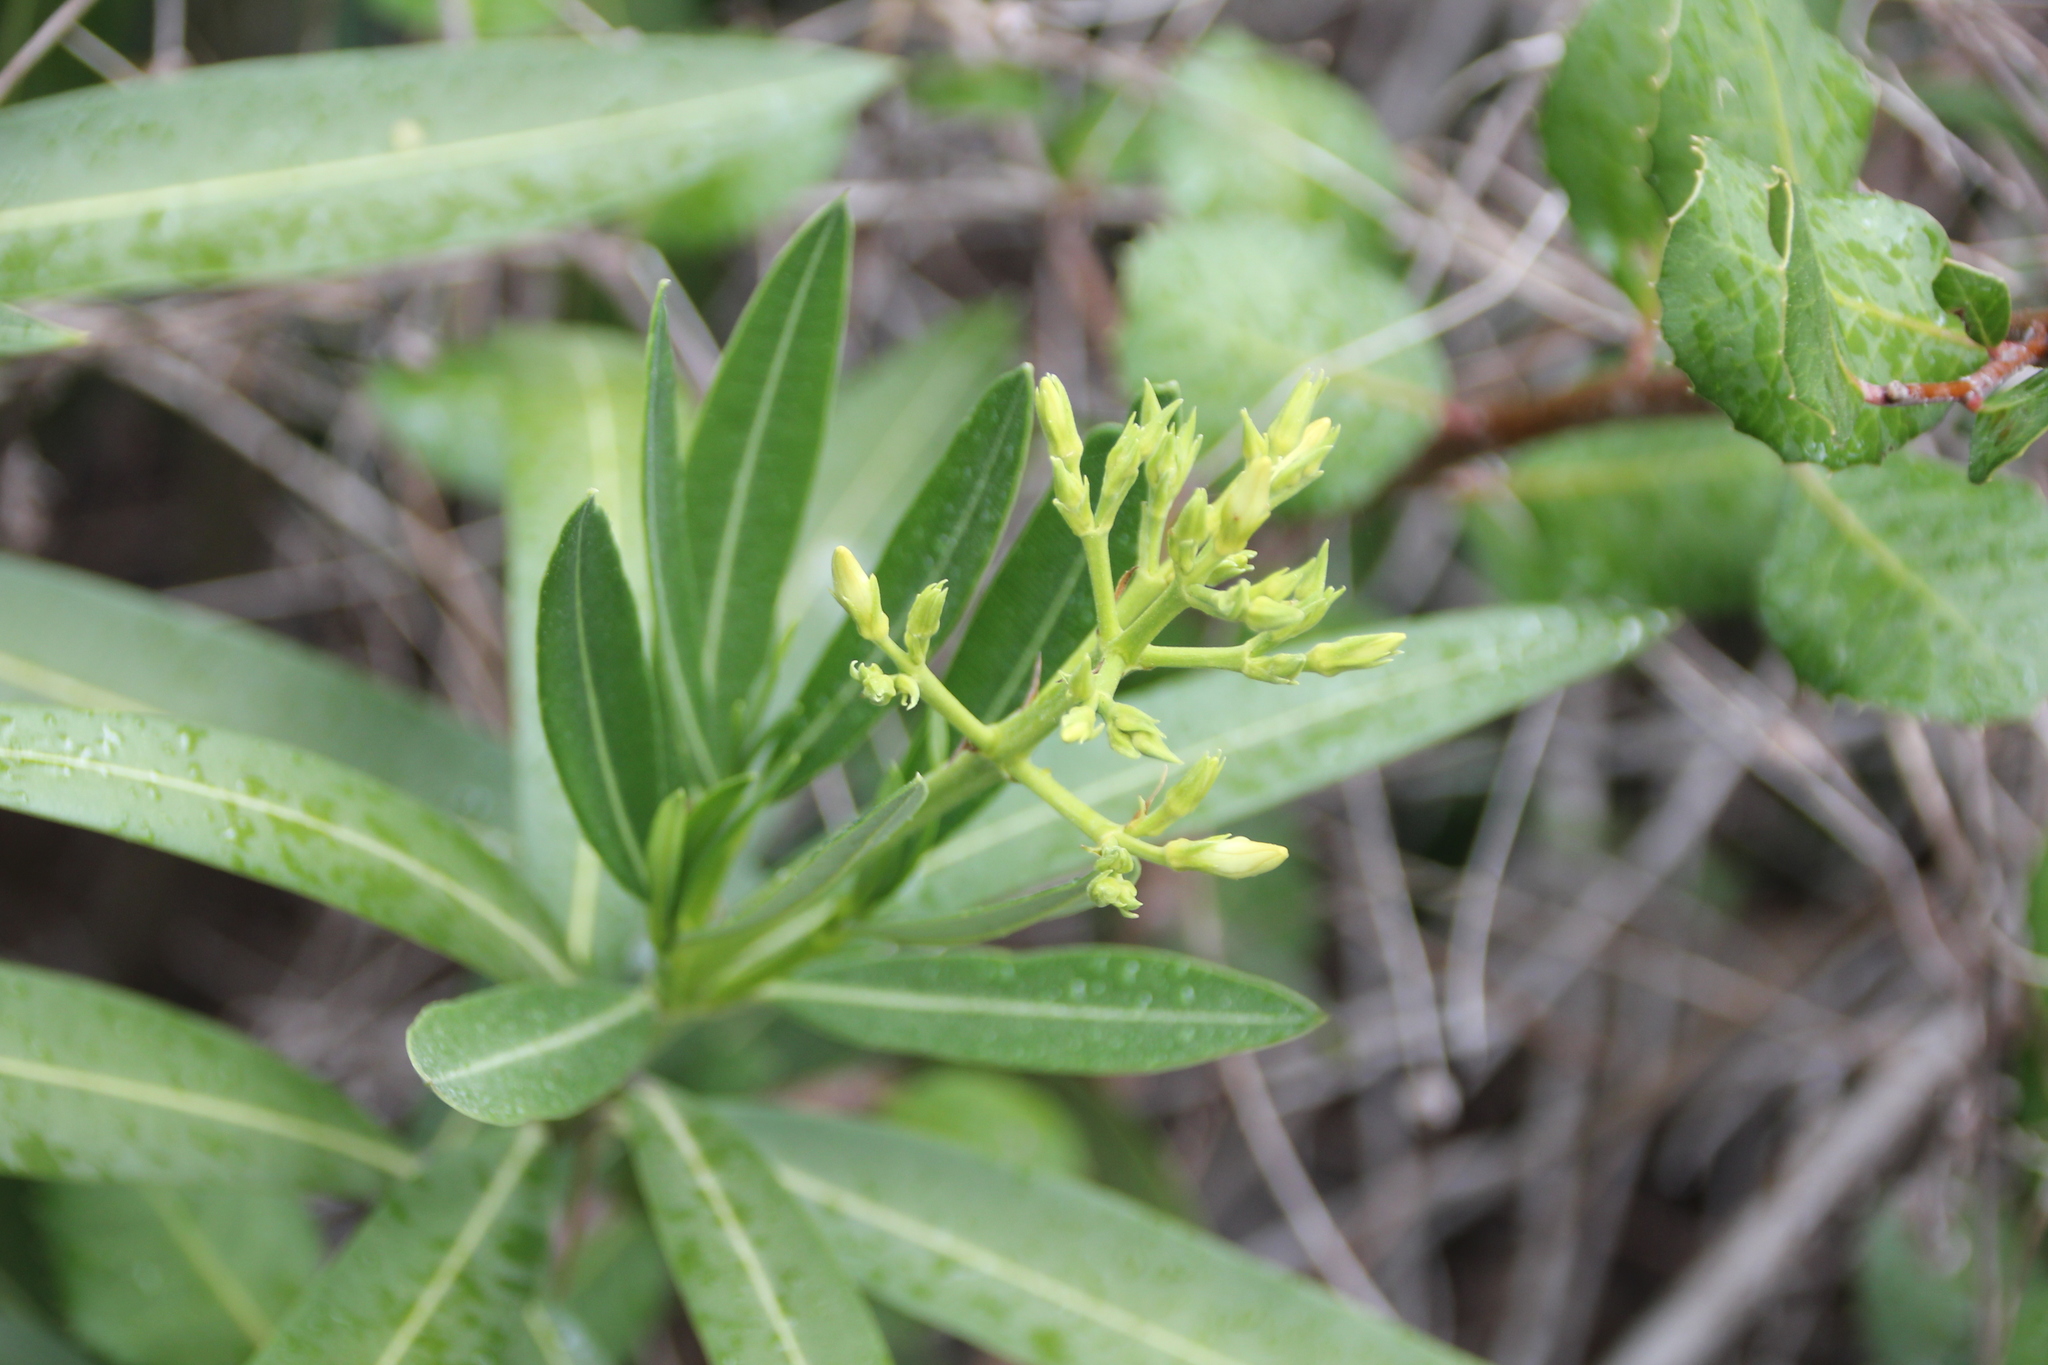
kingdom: Plantae
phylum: Tracheophyta
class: Magnoliopsida
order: Gentianales
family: Apocynaceae
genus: Nerium
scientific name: Nerium oleander
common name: Oleander
